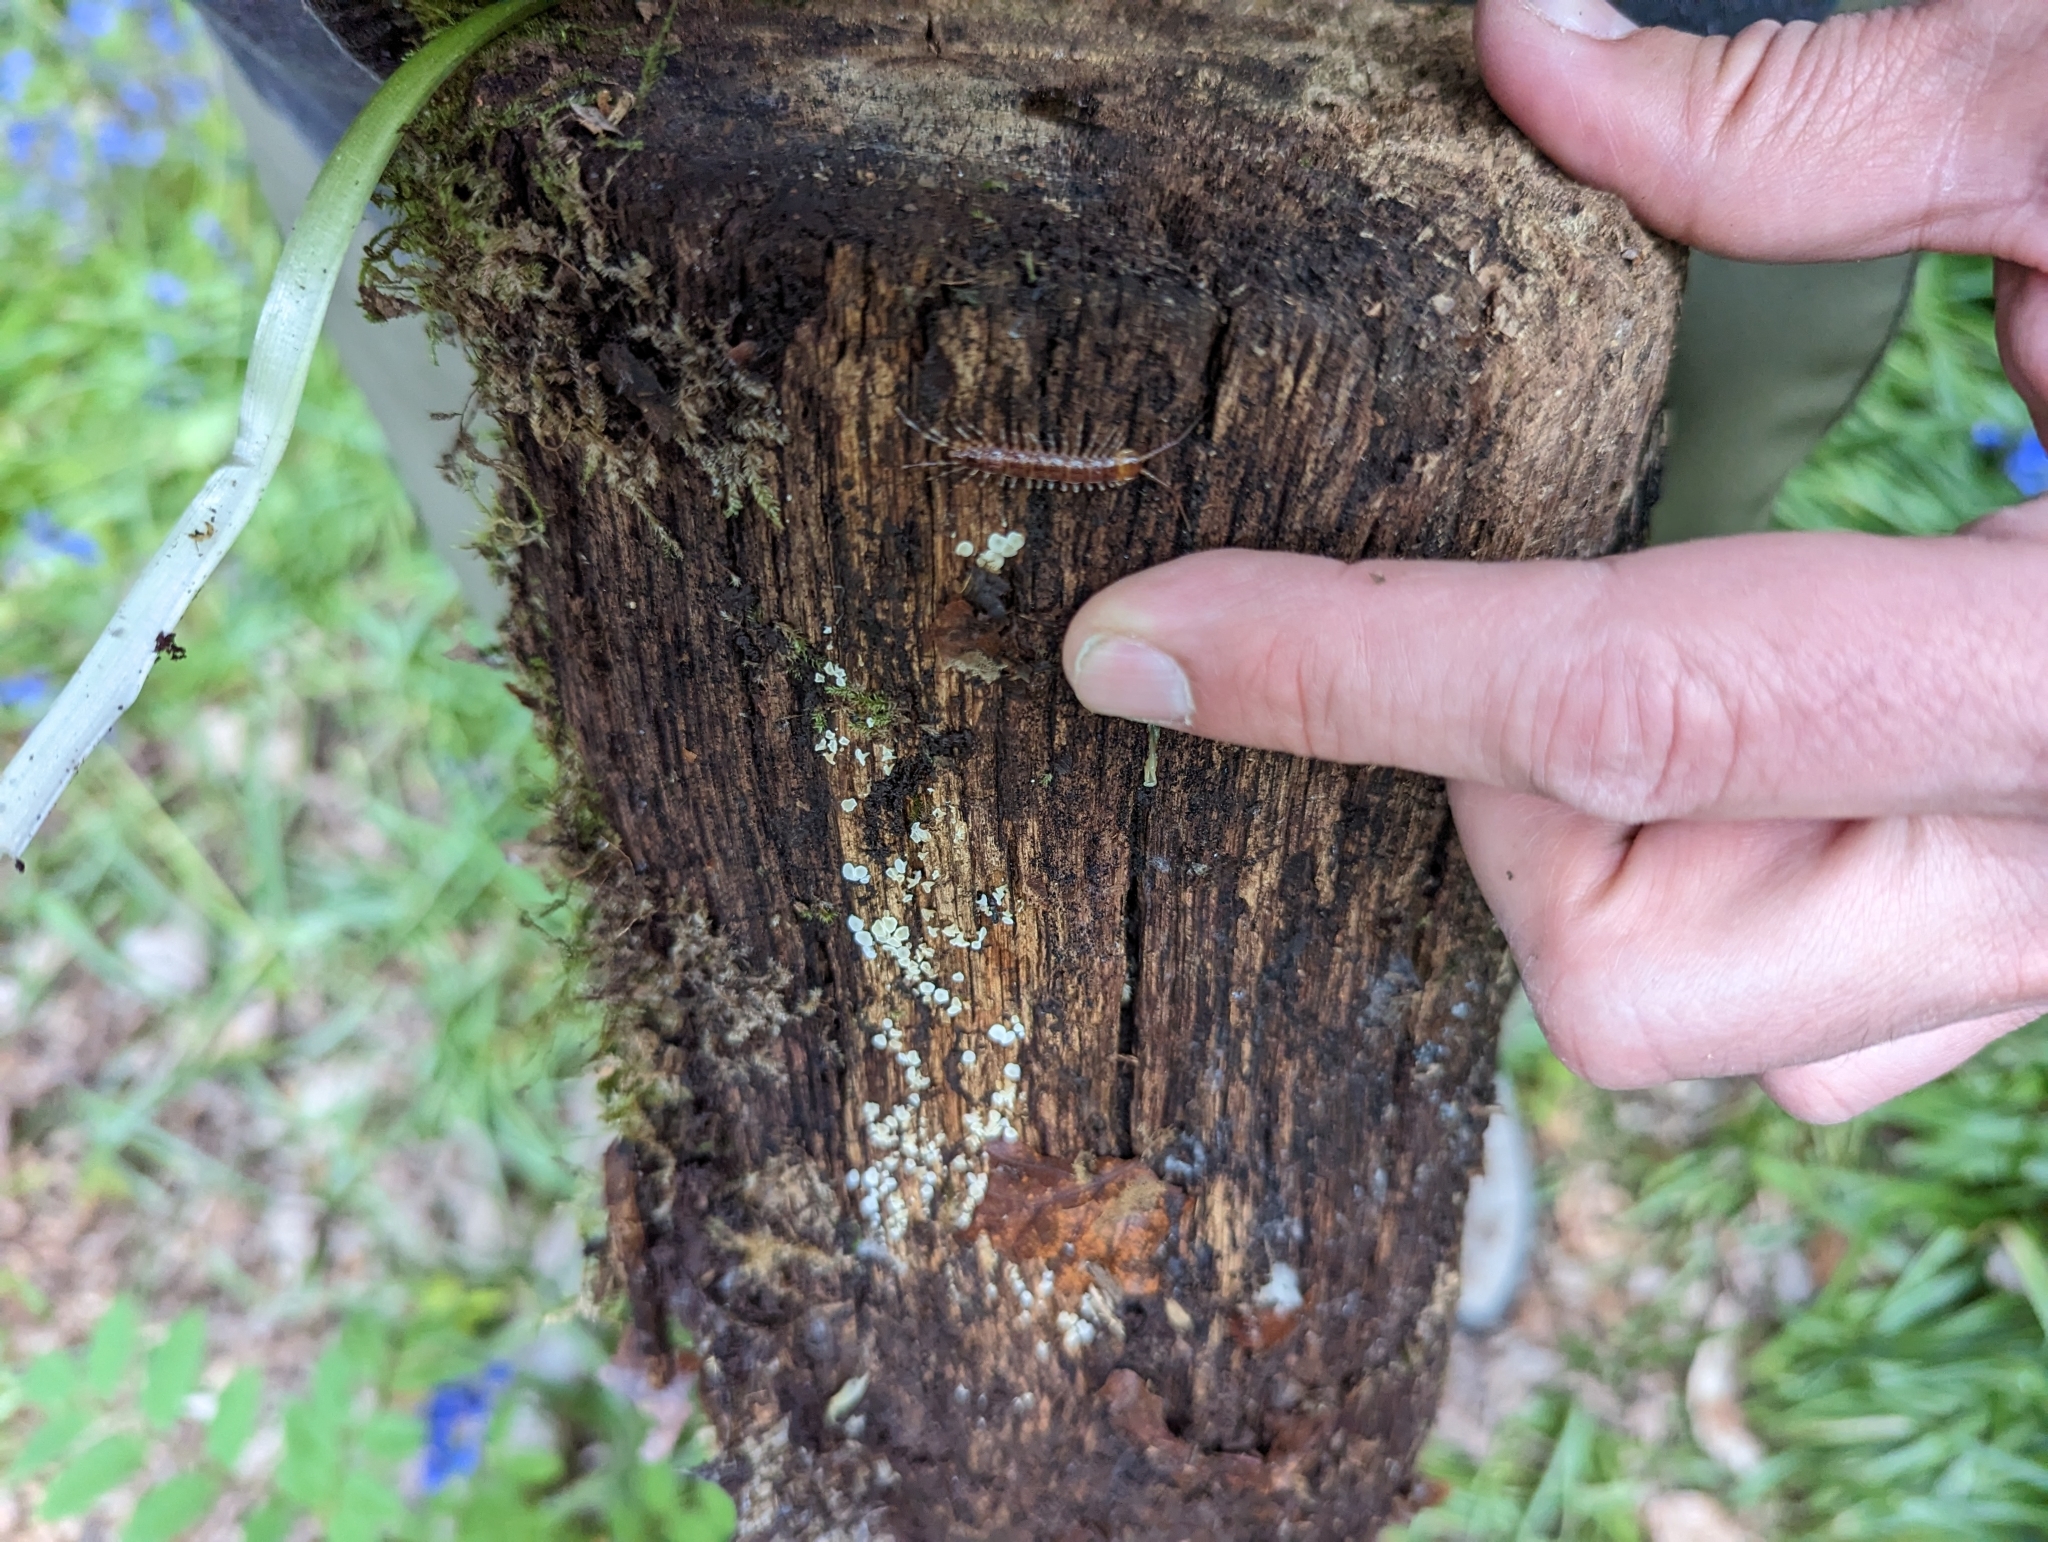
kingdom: Animalia
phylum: Arthropoda
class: Chilopoda
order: Lithobiomorpha
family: Lithobiidae
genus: Lithobius
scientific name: Lithobius variegatus
